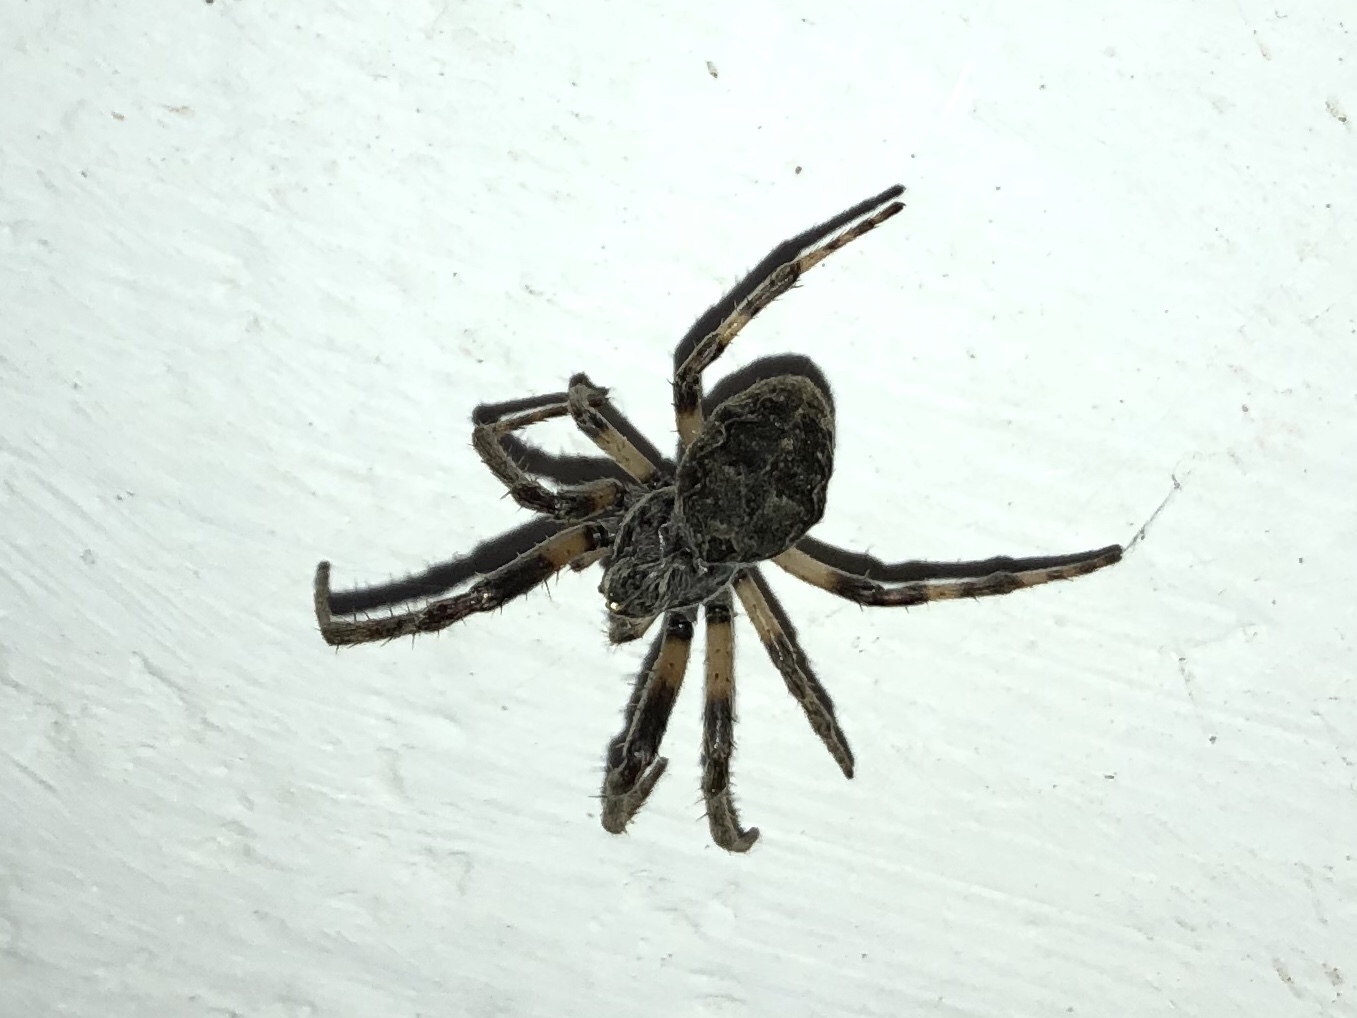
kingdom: Animalia
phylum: Arthropoda
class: Arachnida
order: Araneae
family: Araneidae
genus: Larinioides
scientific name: Larinioides sclopetarius
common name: Bridge orbweaver
